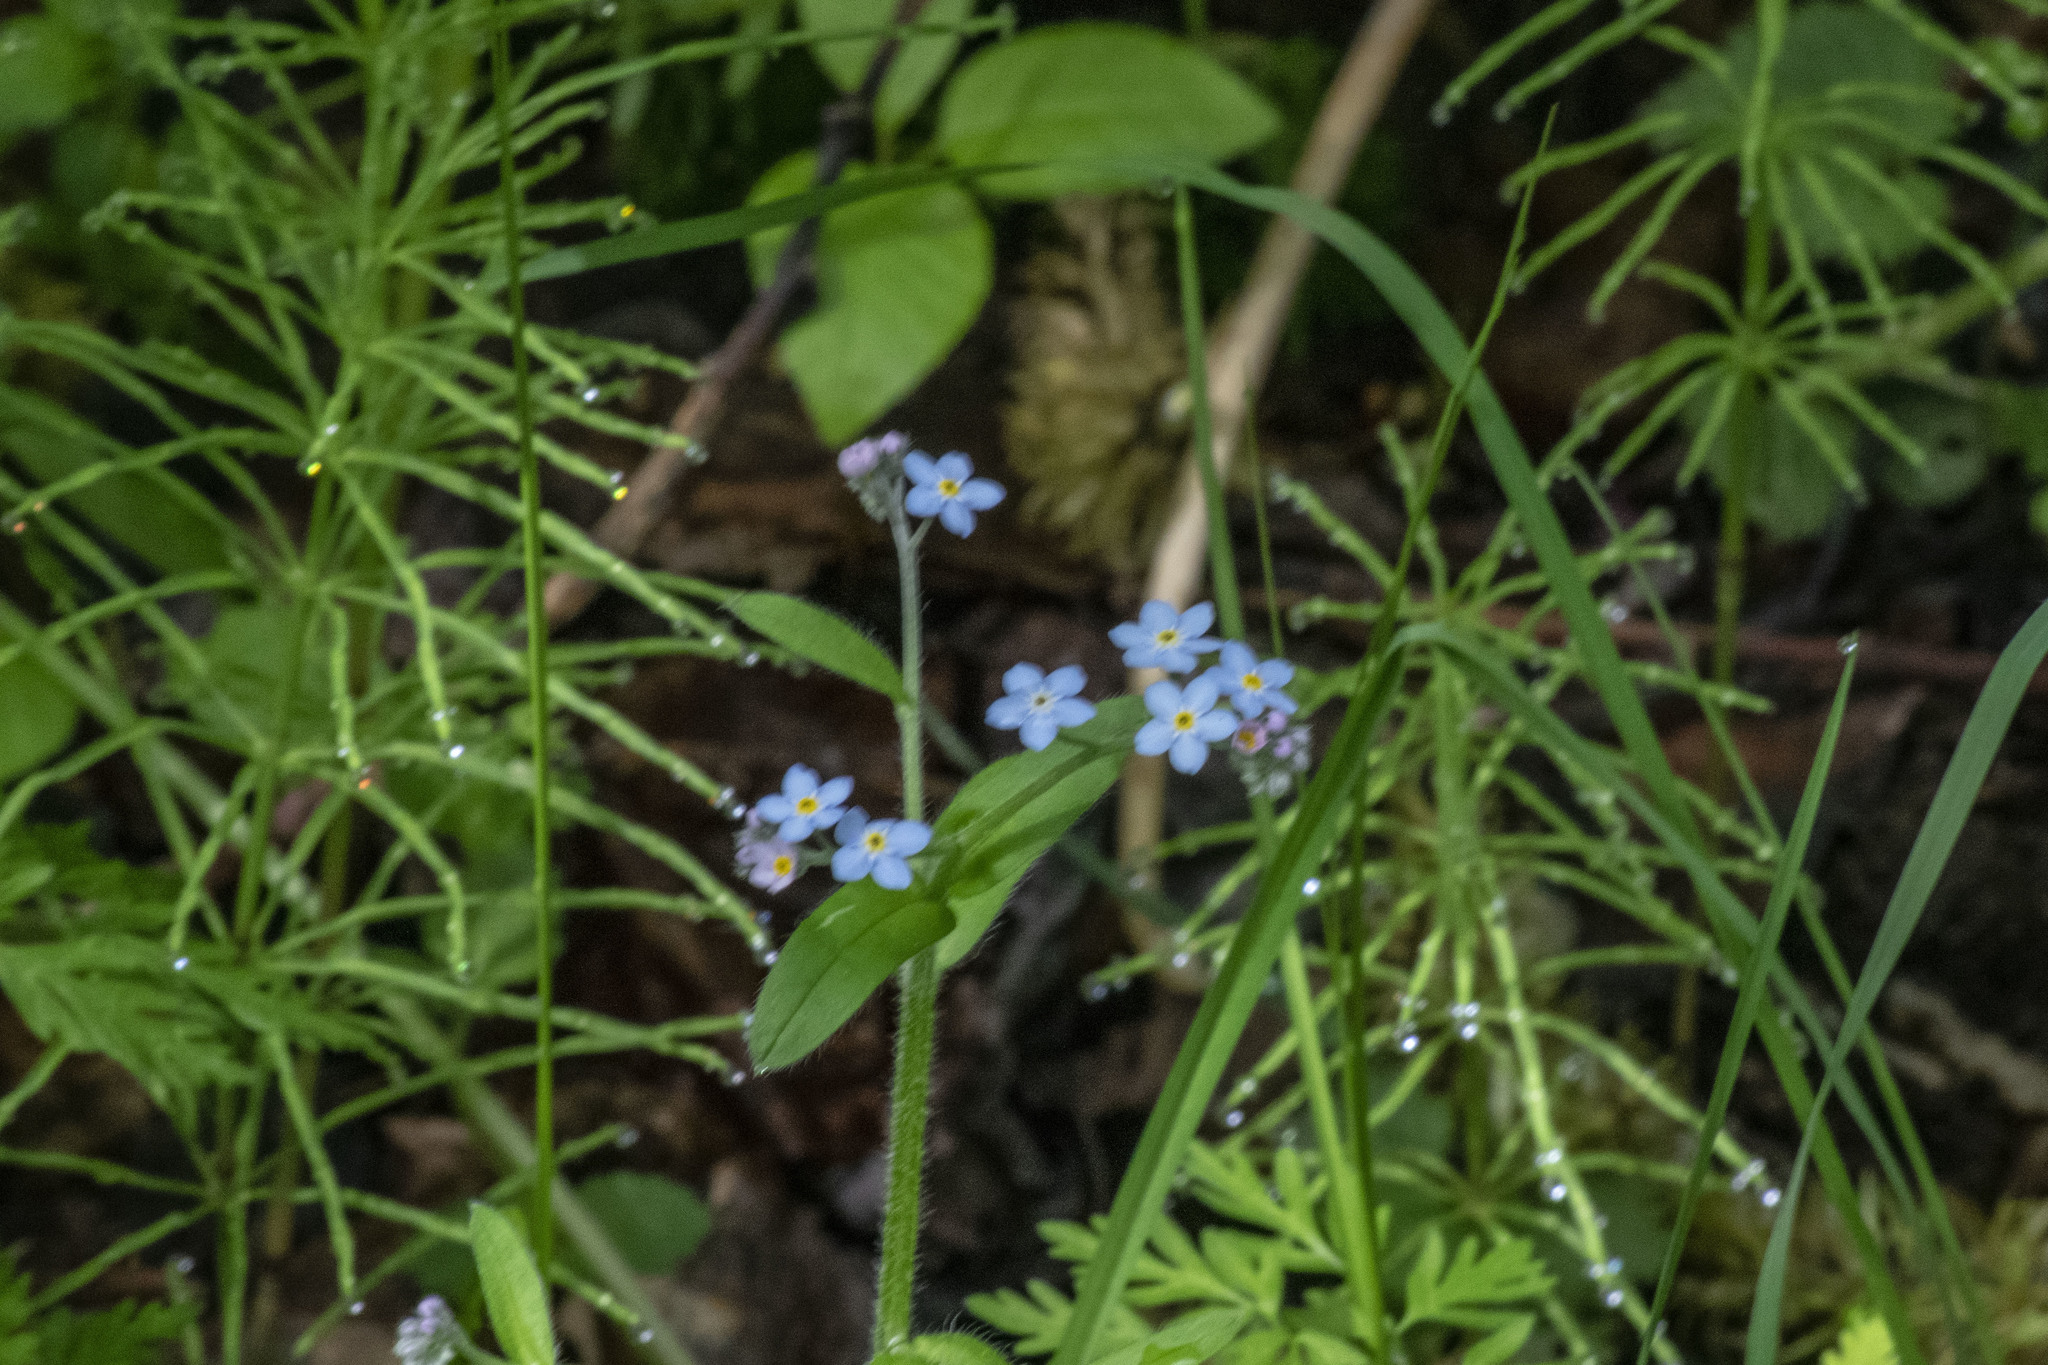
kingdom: Plantae
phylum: Tracheophyta
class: Magnoliopsida
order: Boraginales
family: Boraginaceae
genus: Myosotis
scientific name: Myosotis sylvatica
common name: Wood forget-me-not
